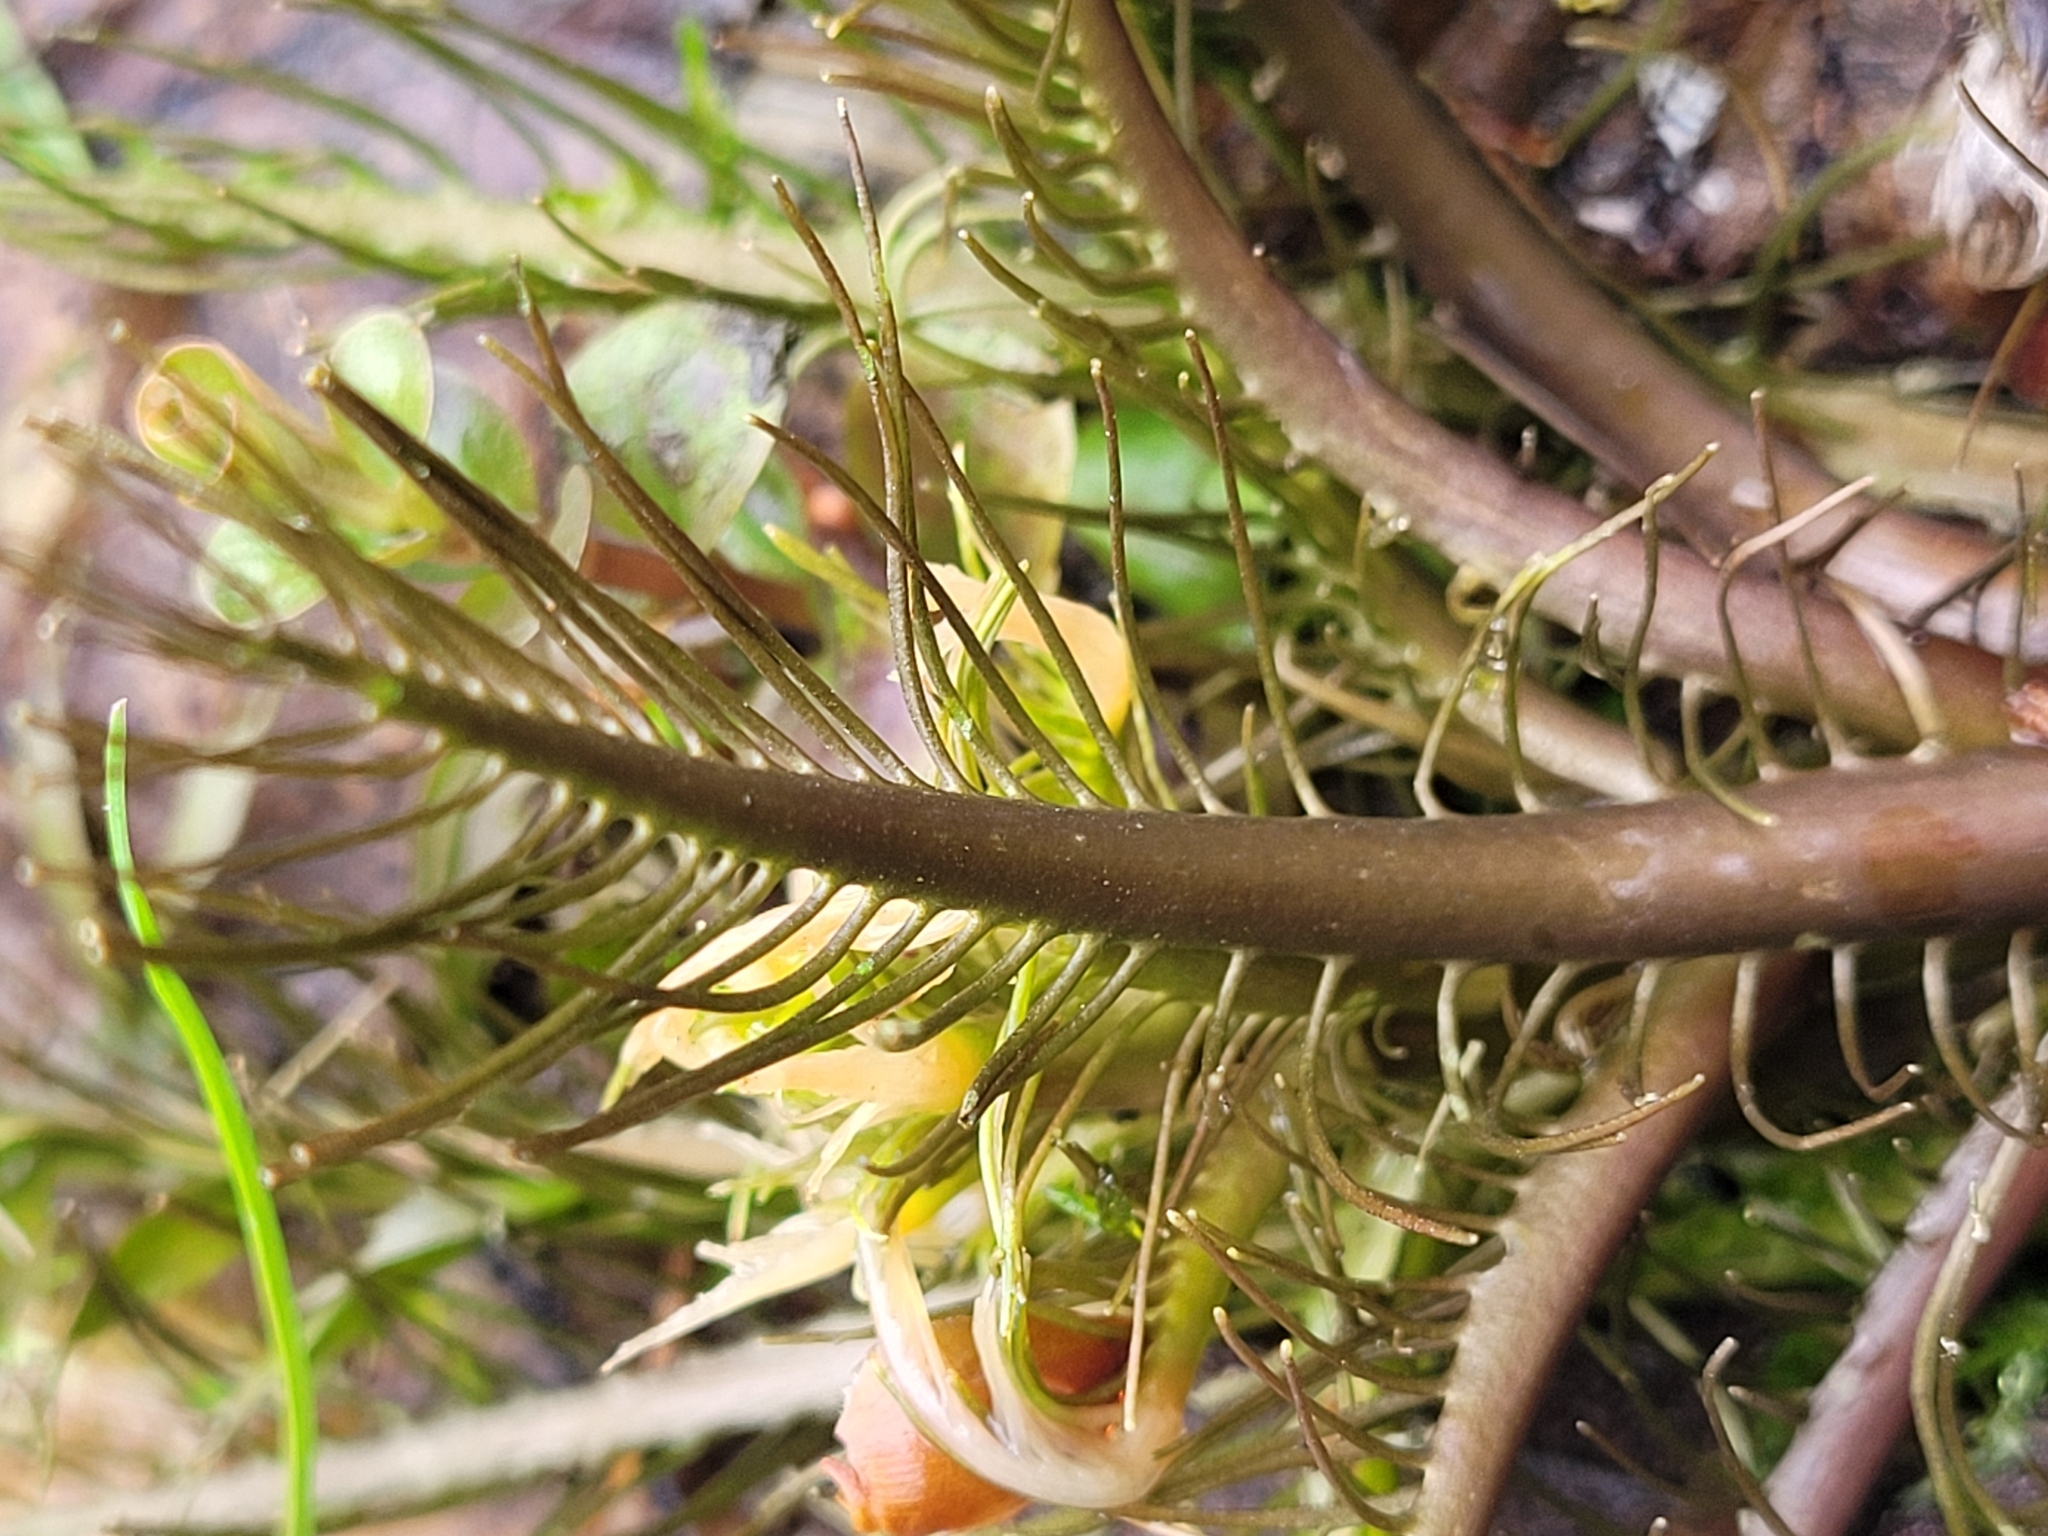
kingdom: Plantae
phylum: Tracheophyta
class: Magnoliopsida
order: Brassicales
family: Brassicaceae
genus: Rorippa
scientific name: Rorippa amphibia
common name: Great yellow-cress
